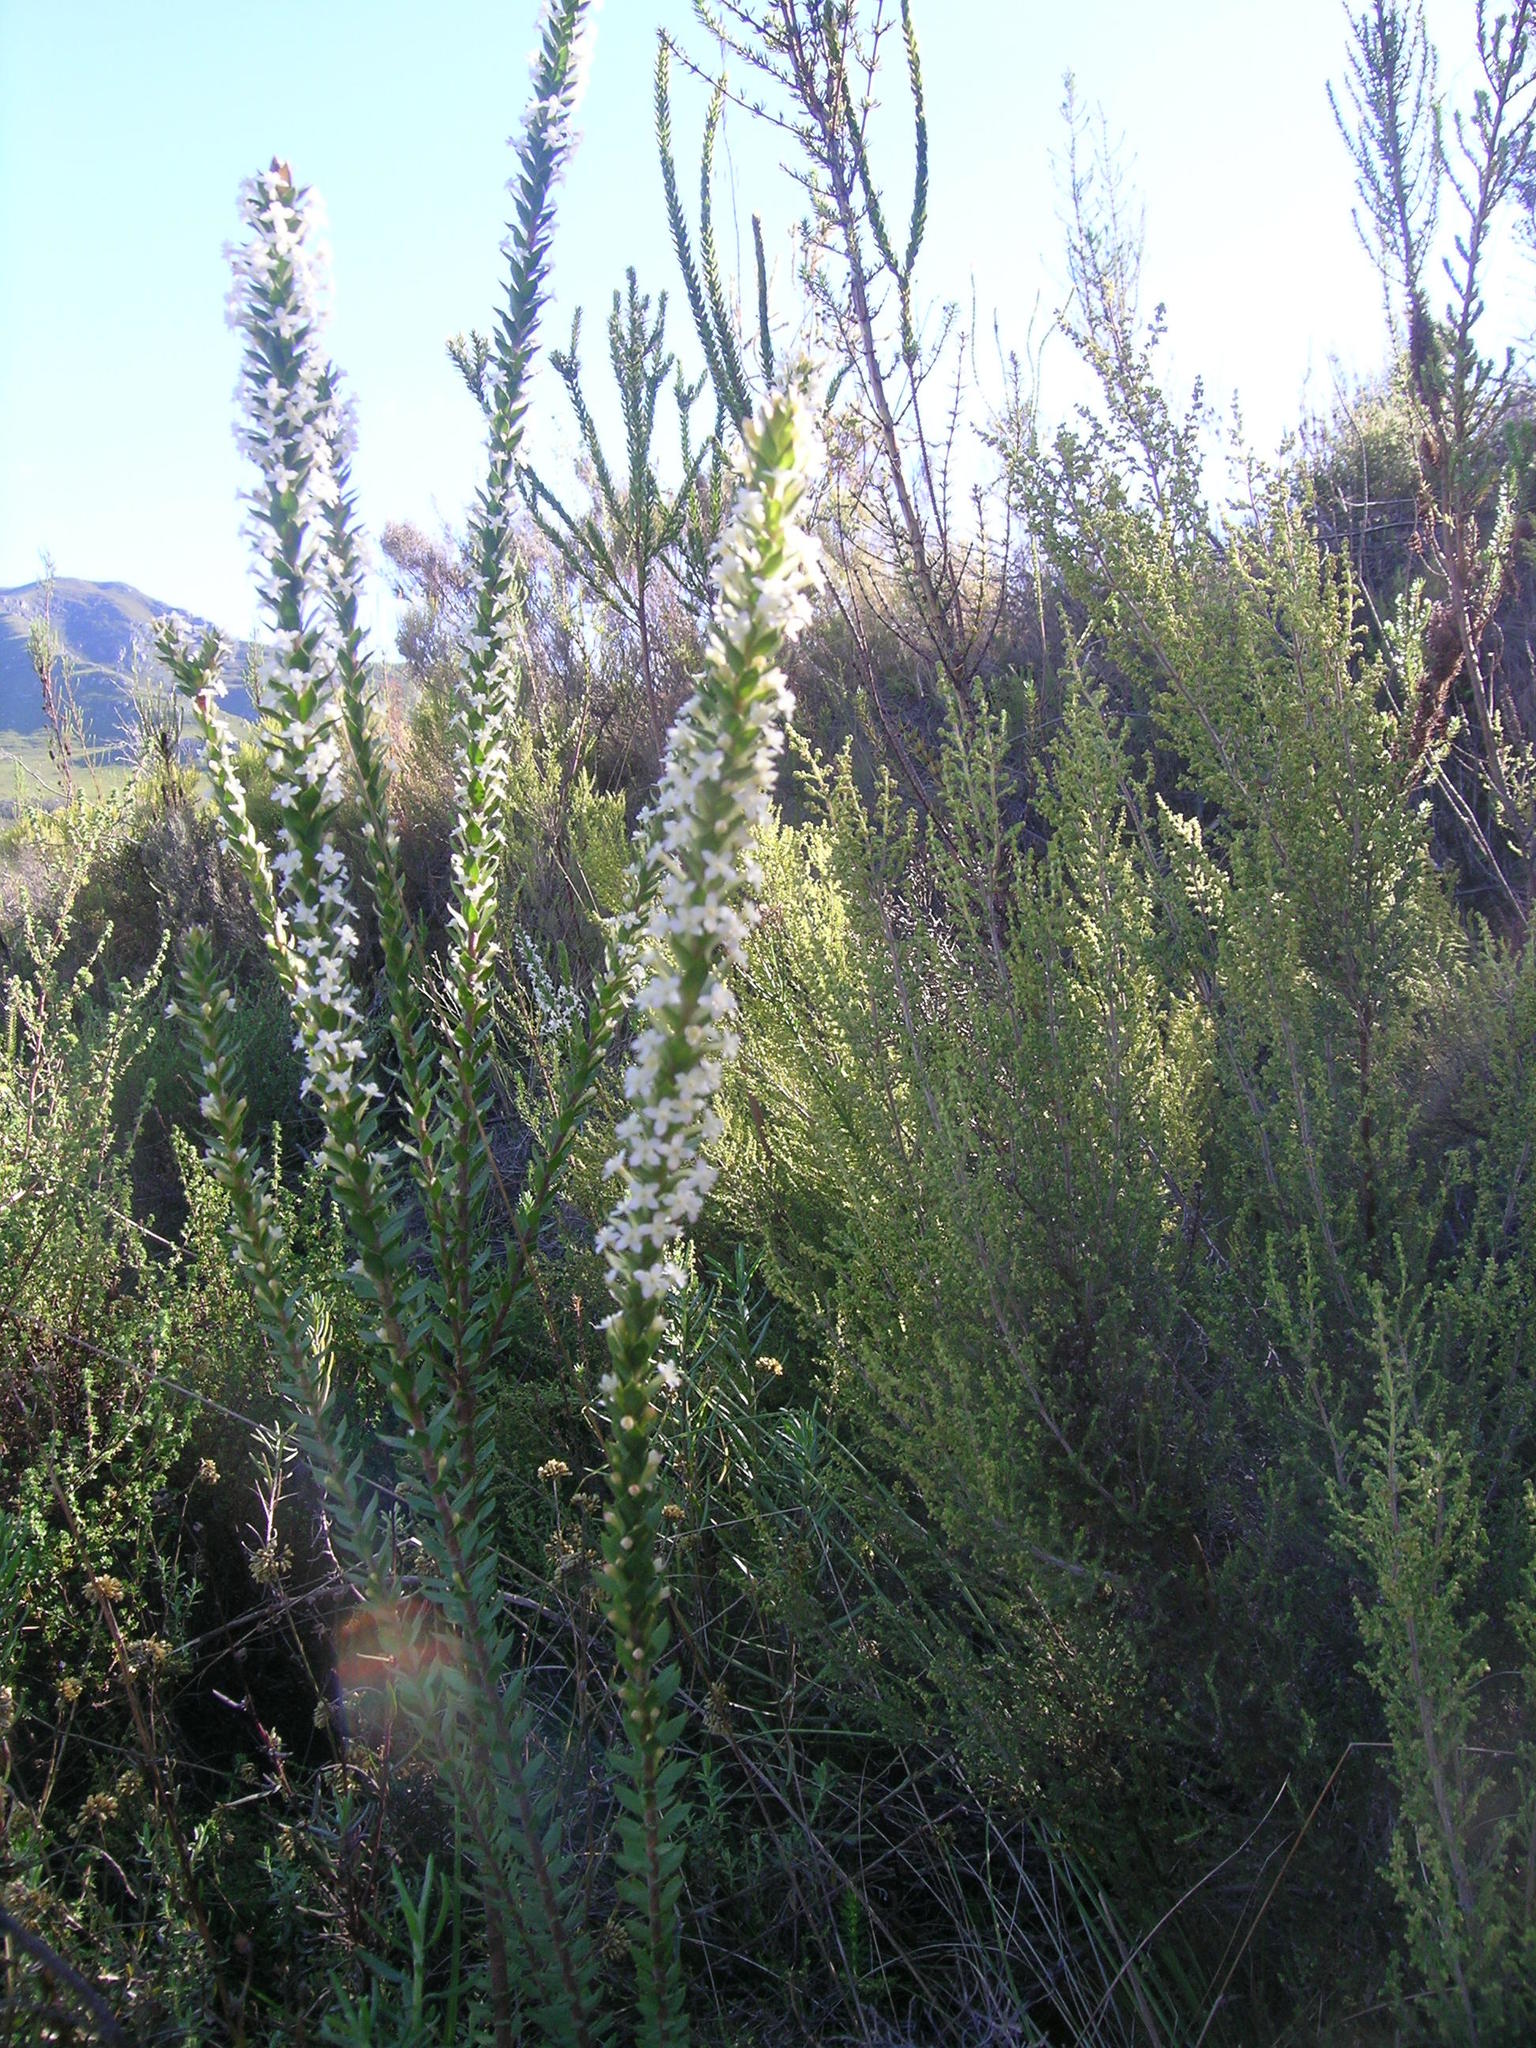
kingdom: Plantae
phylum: Tracheophyta
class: Magnoliopsida
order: Malvales
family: Thymelaeaceae
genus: Struthiola
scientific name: Struthiola hirsuta
